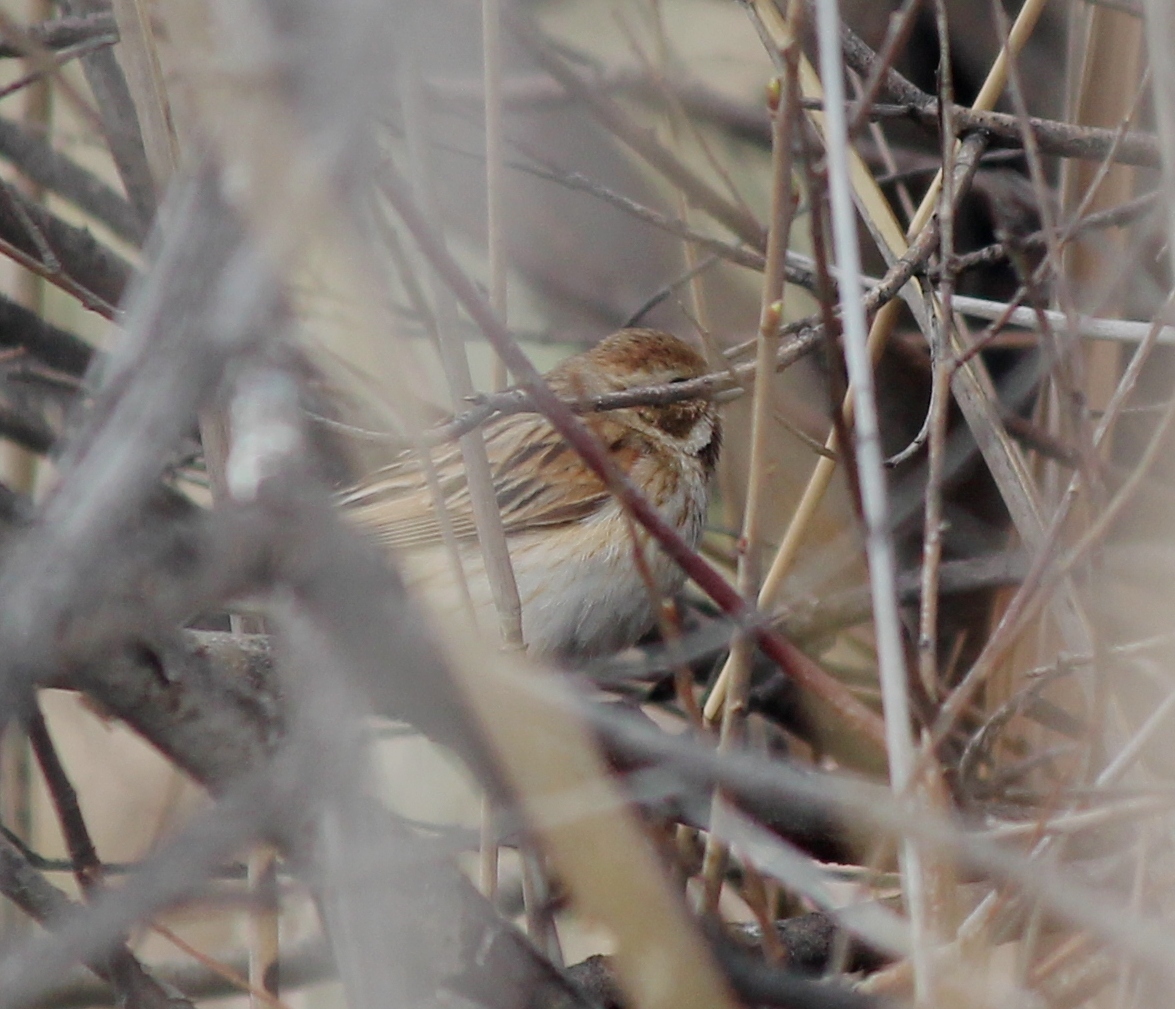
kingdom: Animalia
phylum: Chordata
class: Aves
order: Passeriformes
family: Emberizidae
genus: Emberiza
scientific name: Emberiza schoeniclus
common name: Reed bunting
